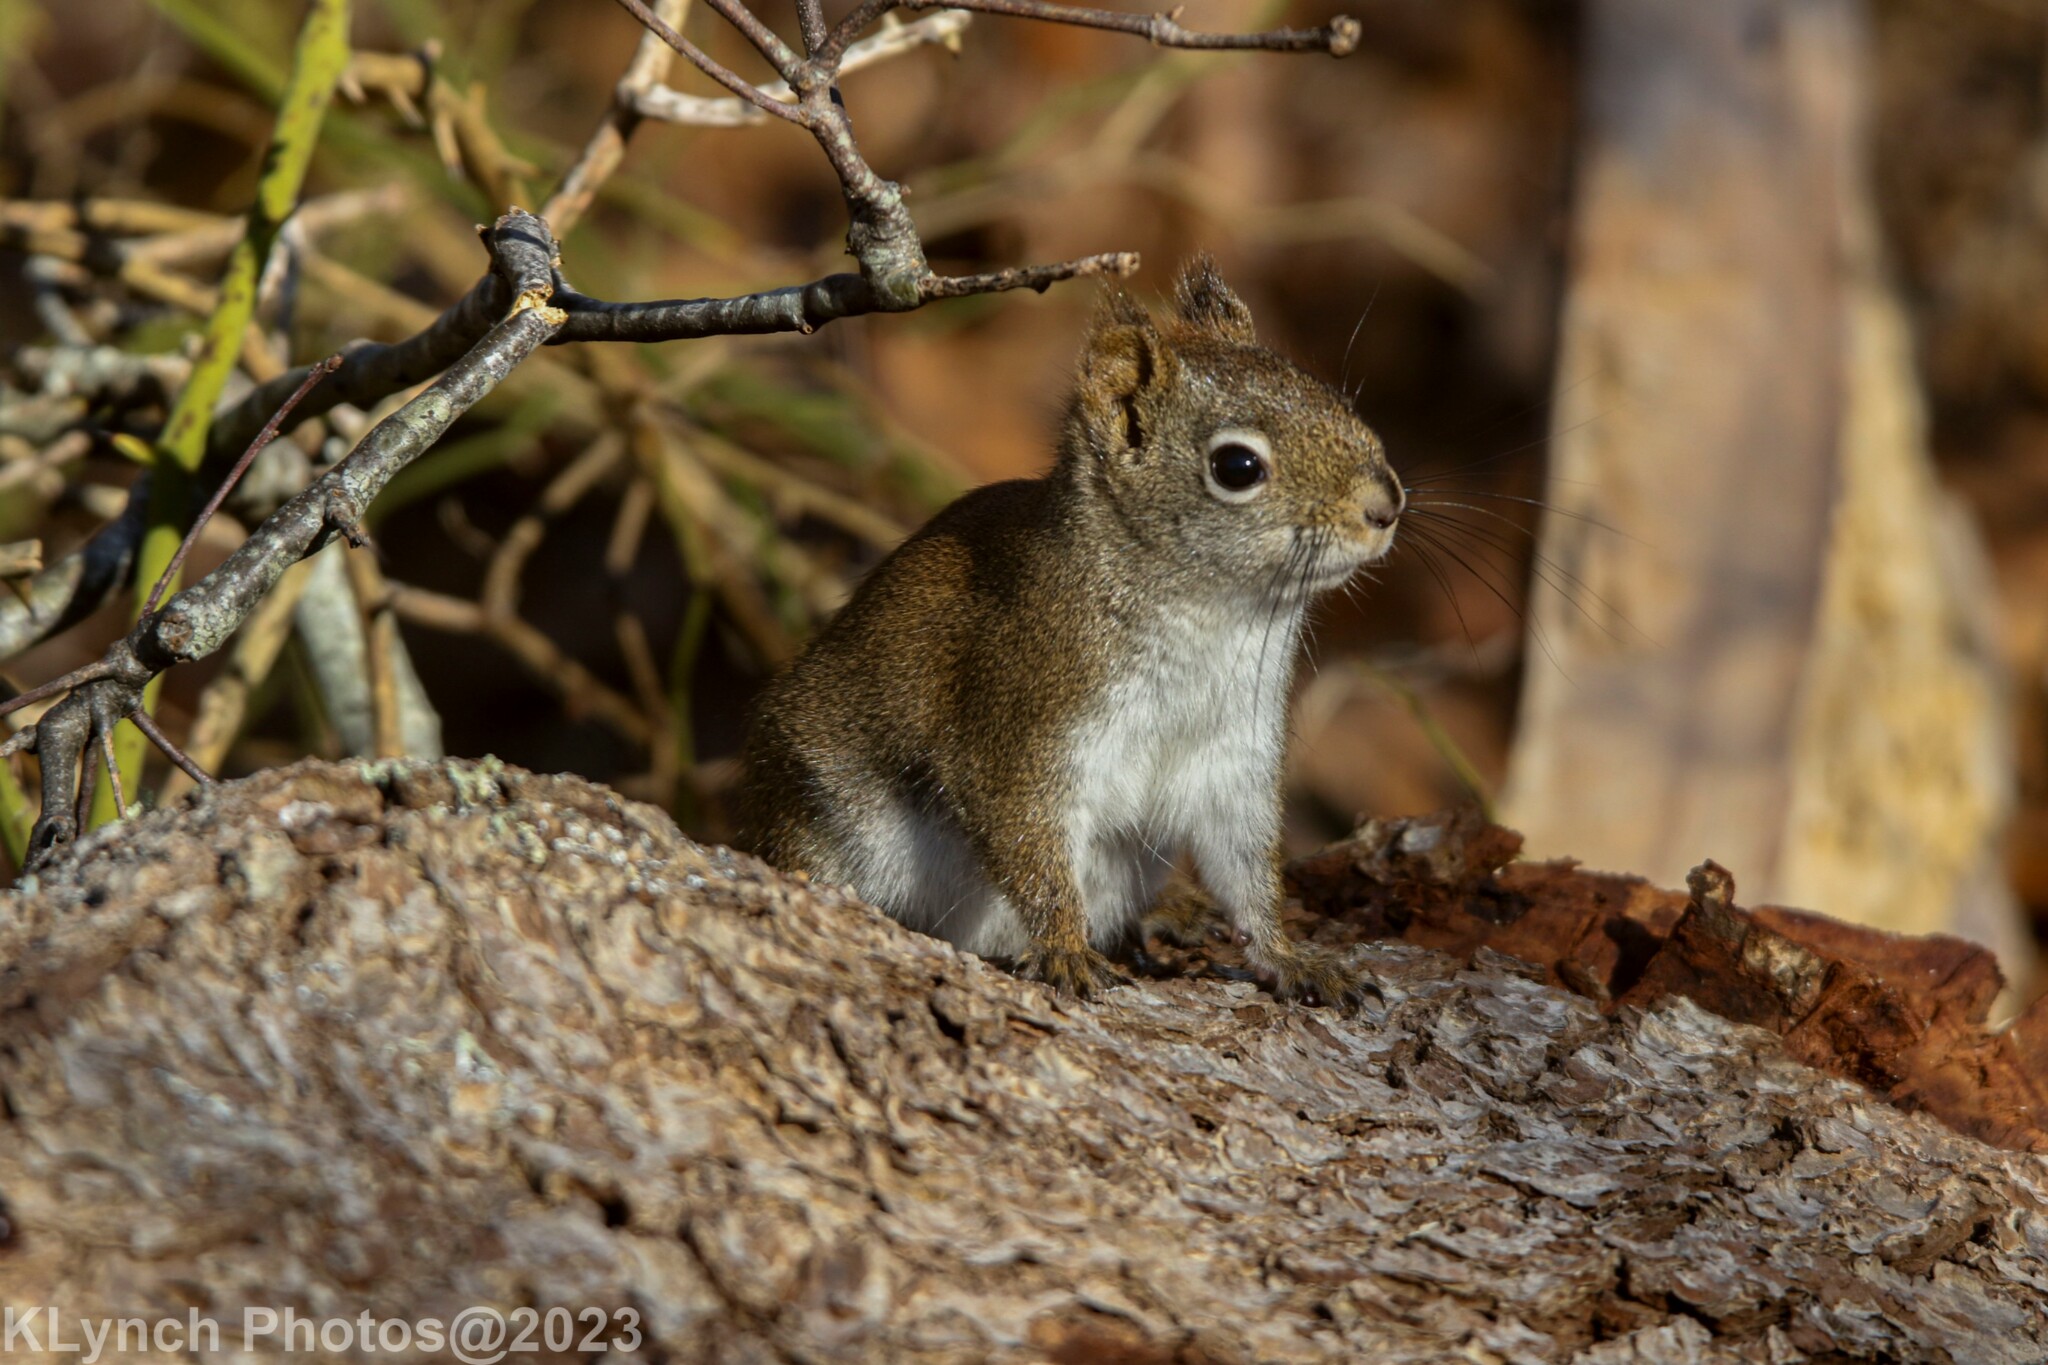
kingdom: Animalia
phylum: Chordata
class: Mammalia
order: Rodentia
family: Sciuridae
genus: Tamiasciurus
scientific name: Tamiasciurus hudsonicus
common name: Red squirrel
